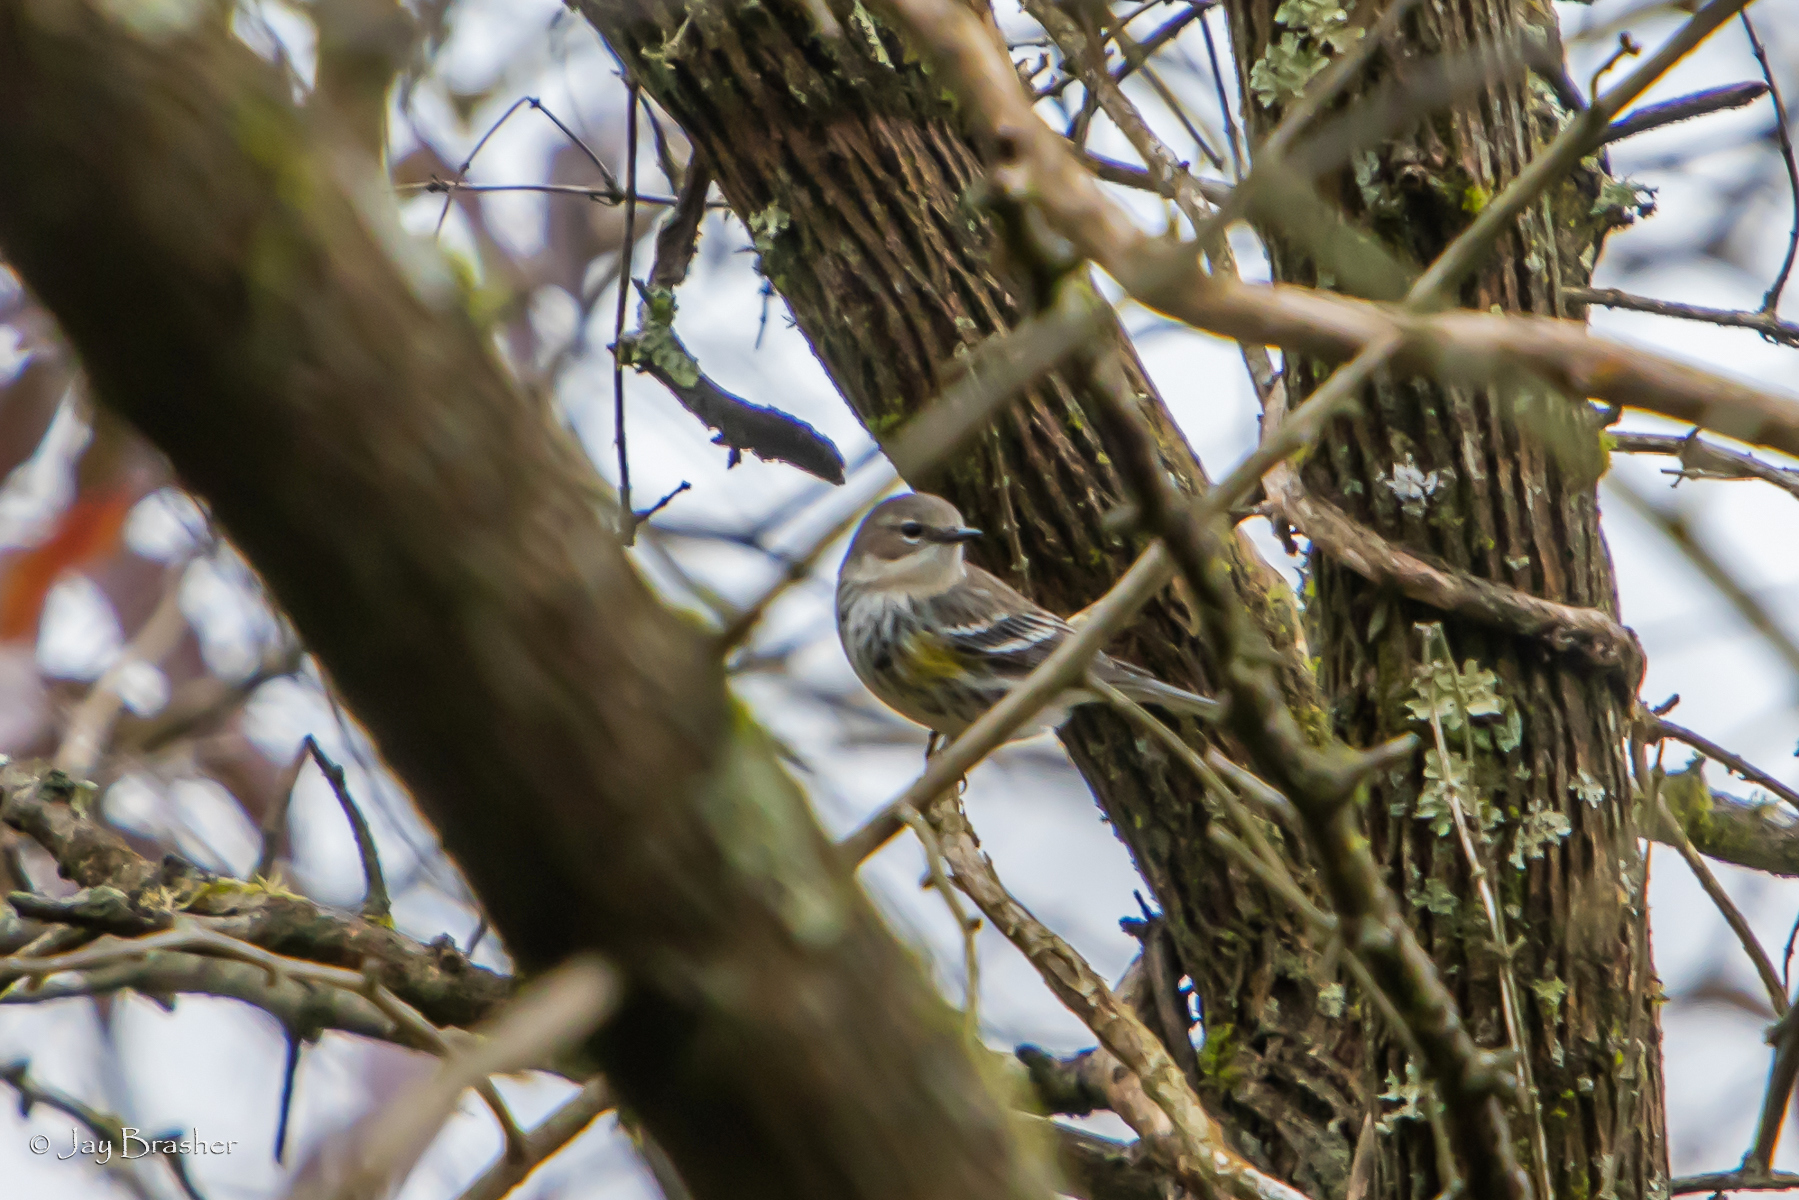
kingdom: Animalia
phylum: Chordata
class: Aves
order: Passeriformes
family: Parulidae
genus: Setophaga
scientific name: Setophaga coronata
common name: Myrtle warbler
